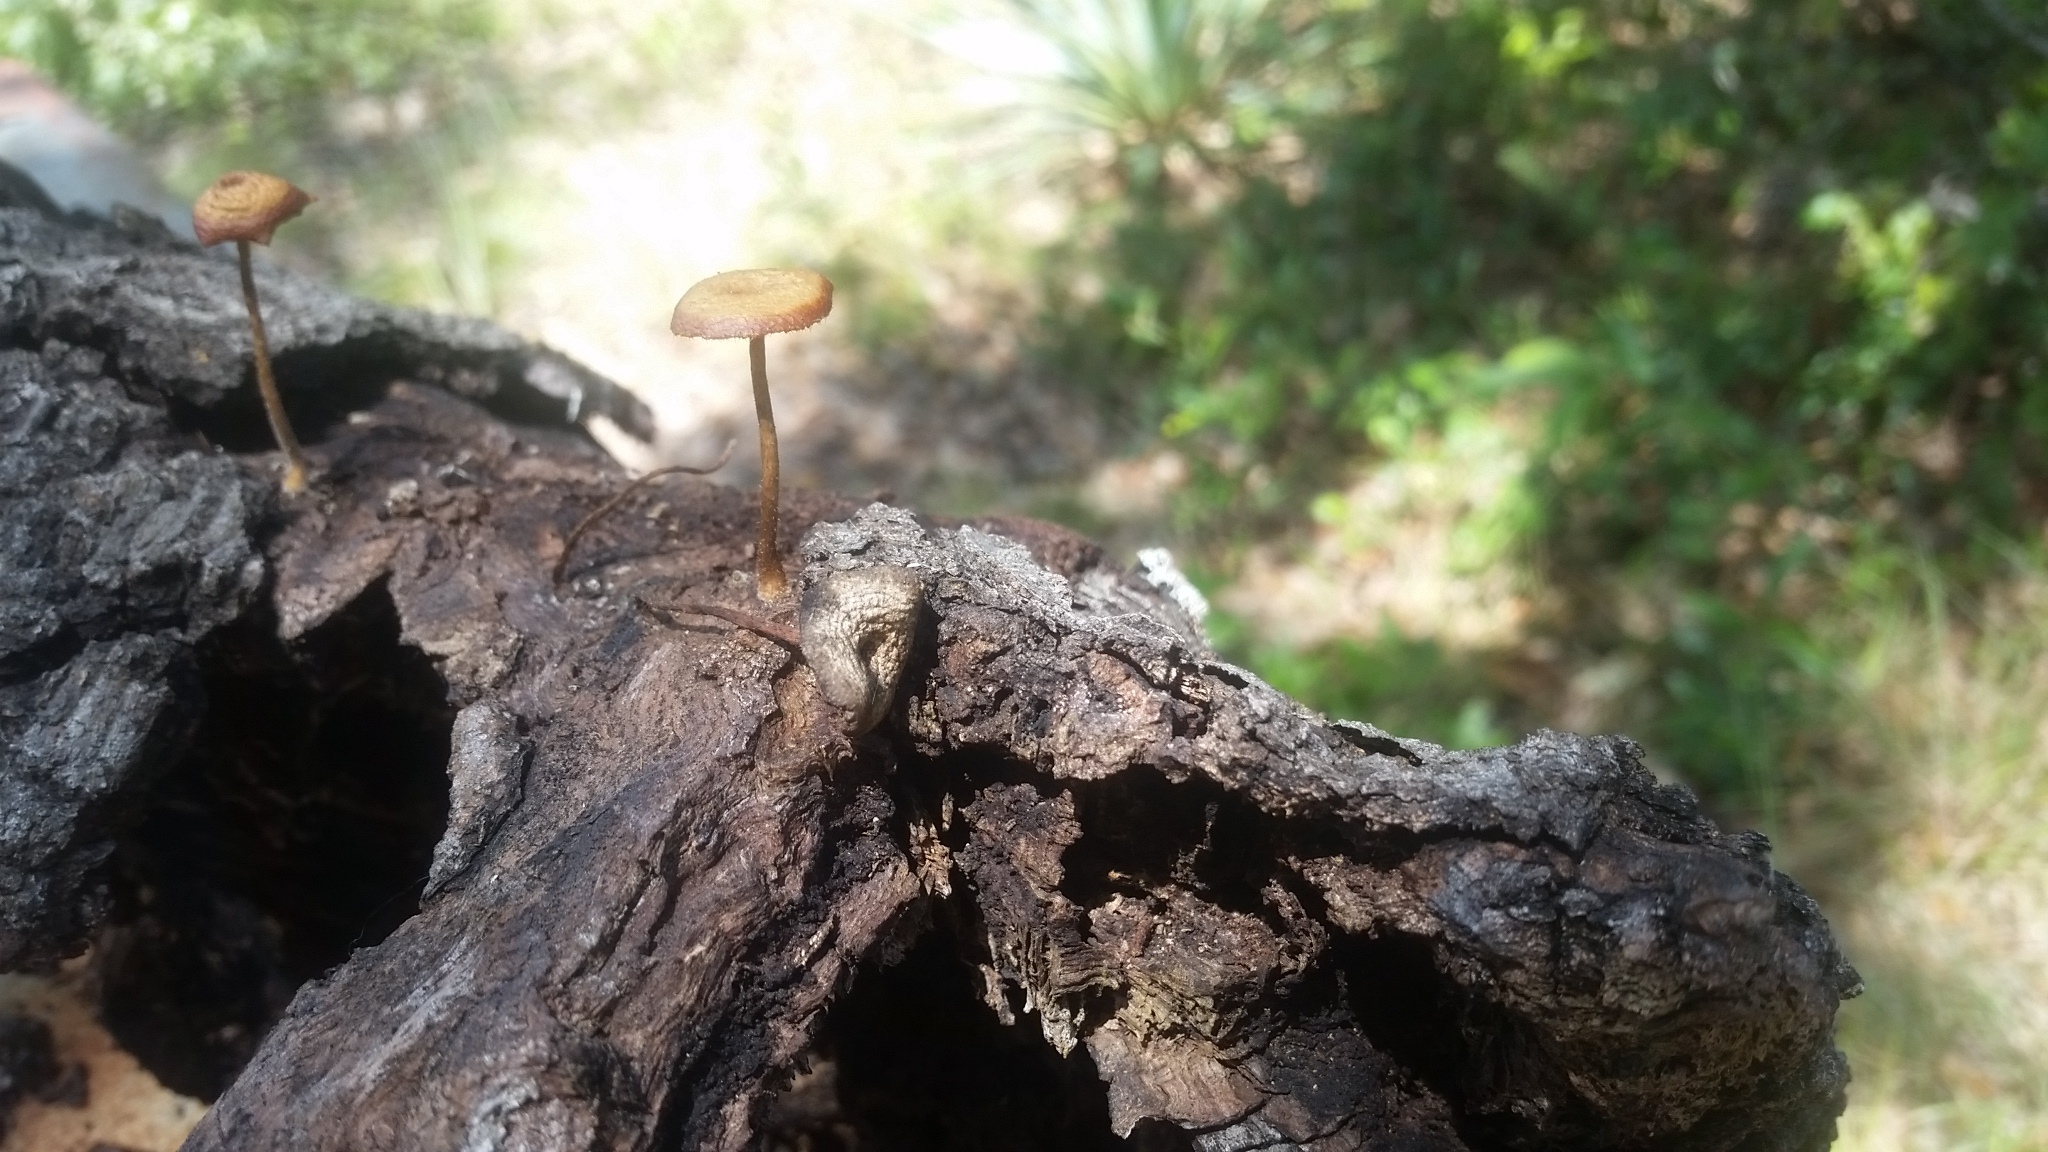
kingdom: Fungi
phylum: Basidiomycota
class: Agaricomycetes
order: Polyporales
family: Polyporaceae
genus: Lentinus
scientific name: Lentinus arcularius
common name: Spring polypore
